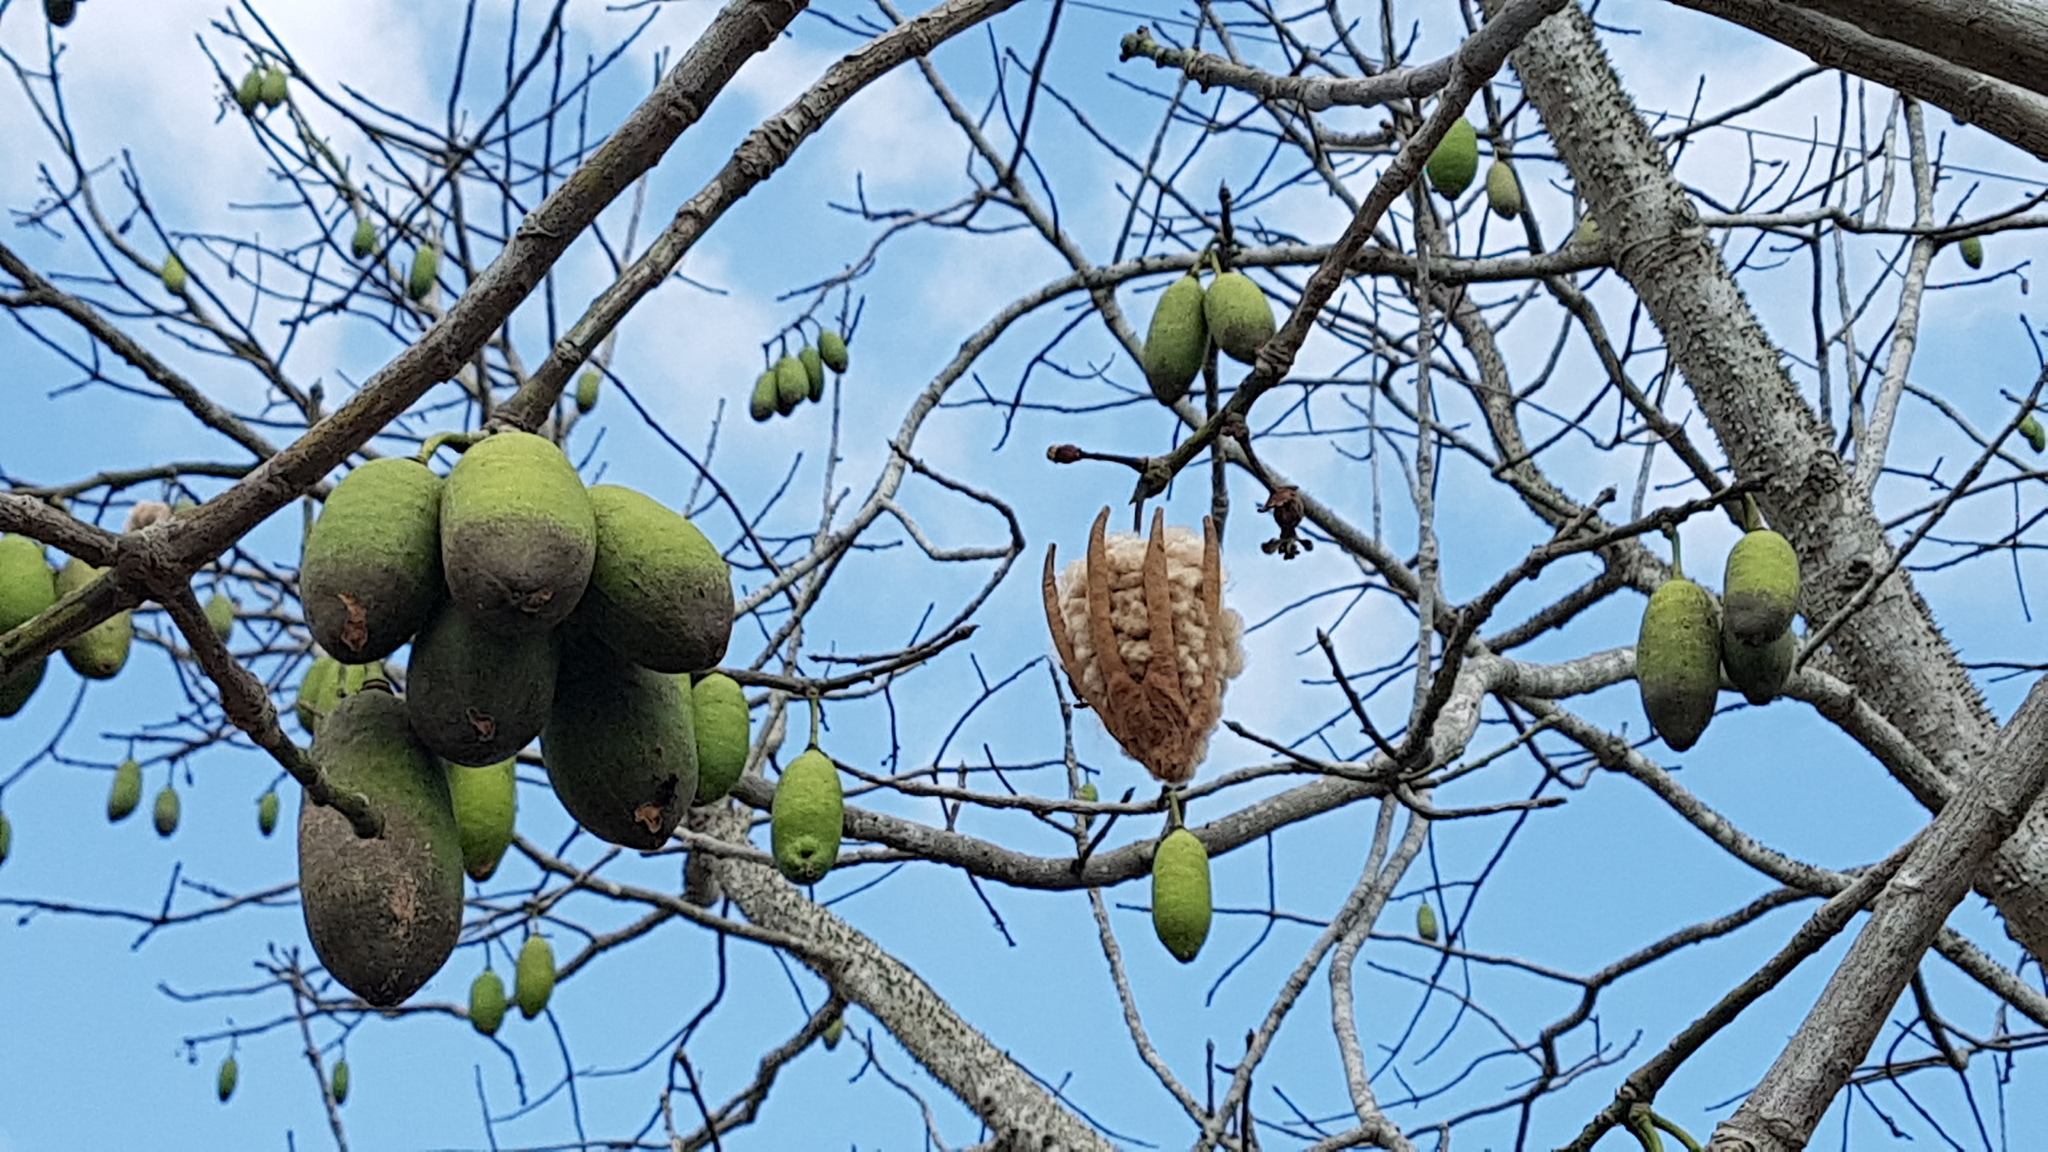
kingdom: Plantae
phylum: Tracheophyta
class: Magnoliopsida
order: Malvales
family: Malvaceae
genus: Ceiba
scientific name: Ceiba pentandra
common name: Kapok
